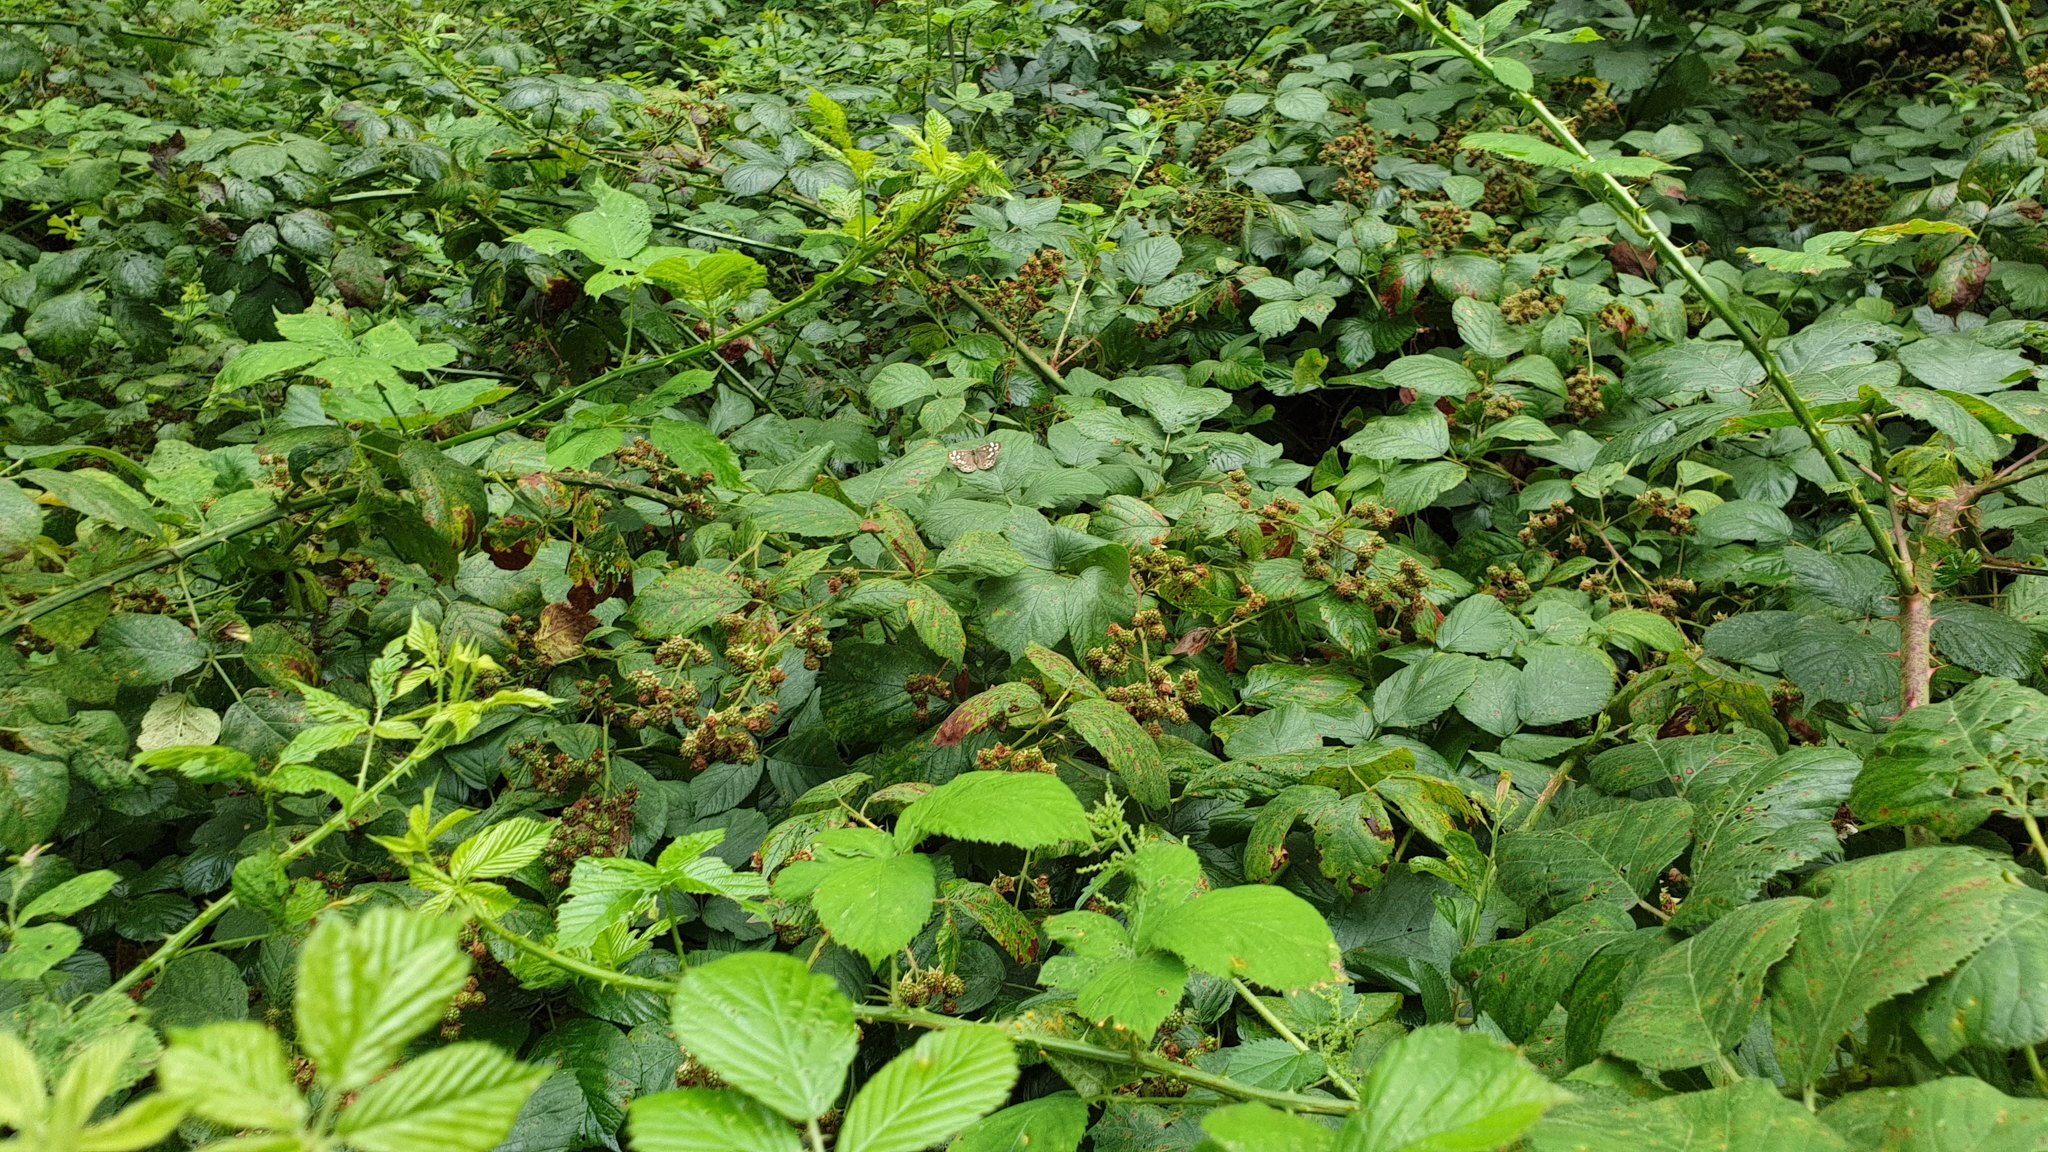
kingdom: Animalia
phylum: Arthropoda
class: Insecta
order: Lepidoptera
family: Nymphalidae
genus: Pararge
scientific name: Pararge aegeria
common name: Speckled wood
